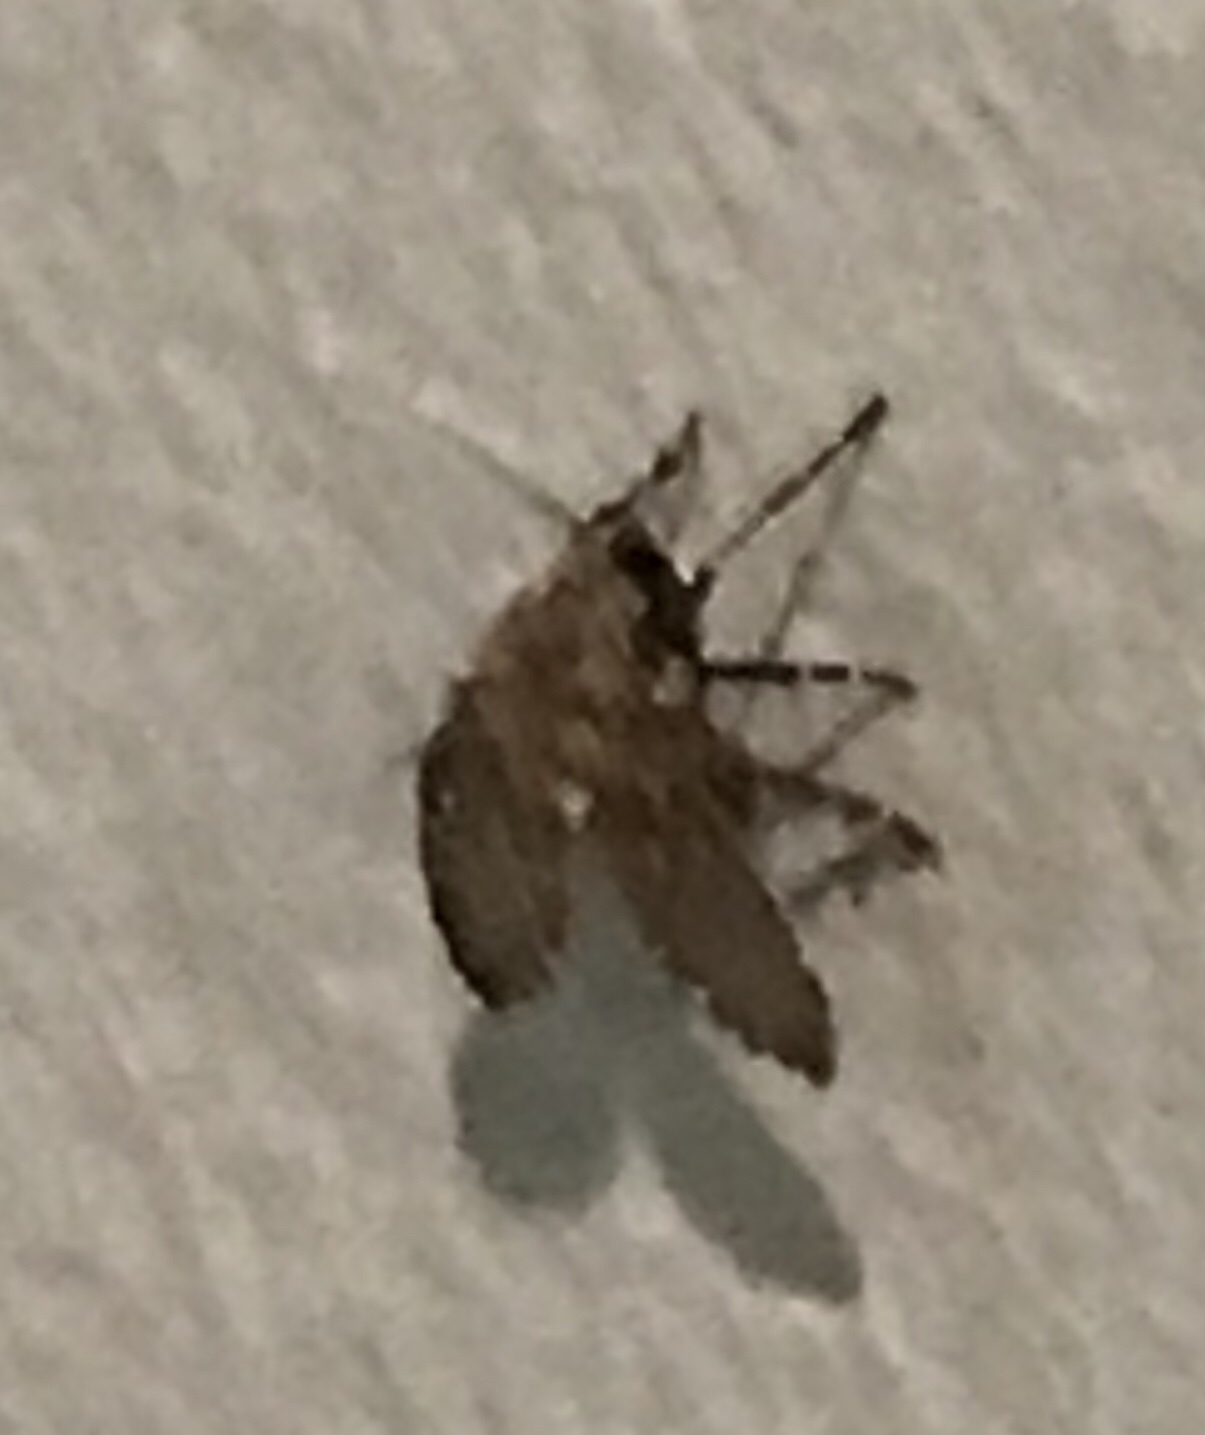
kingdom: Animalia
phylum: Arthropoda
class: Insecta
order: Diptera
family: Psychodidae
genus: Clogmia
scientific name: Clogmia albipunctatus
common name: White-spotted moth fly
